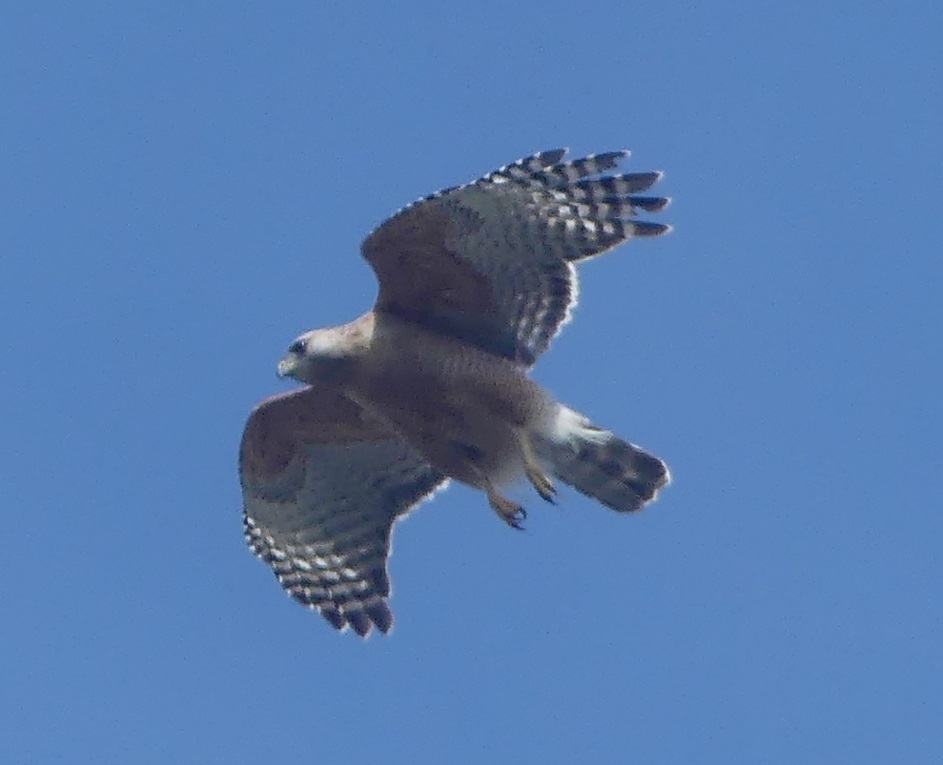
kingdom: Animalia
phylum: Chordata
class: Aves
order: Accipitriformes
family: Accipitridae
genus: Buteo
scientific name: Buteo lineatus
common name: Red-shouldered hawk
